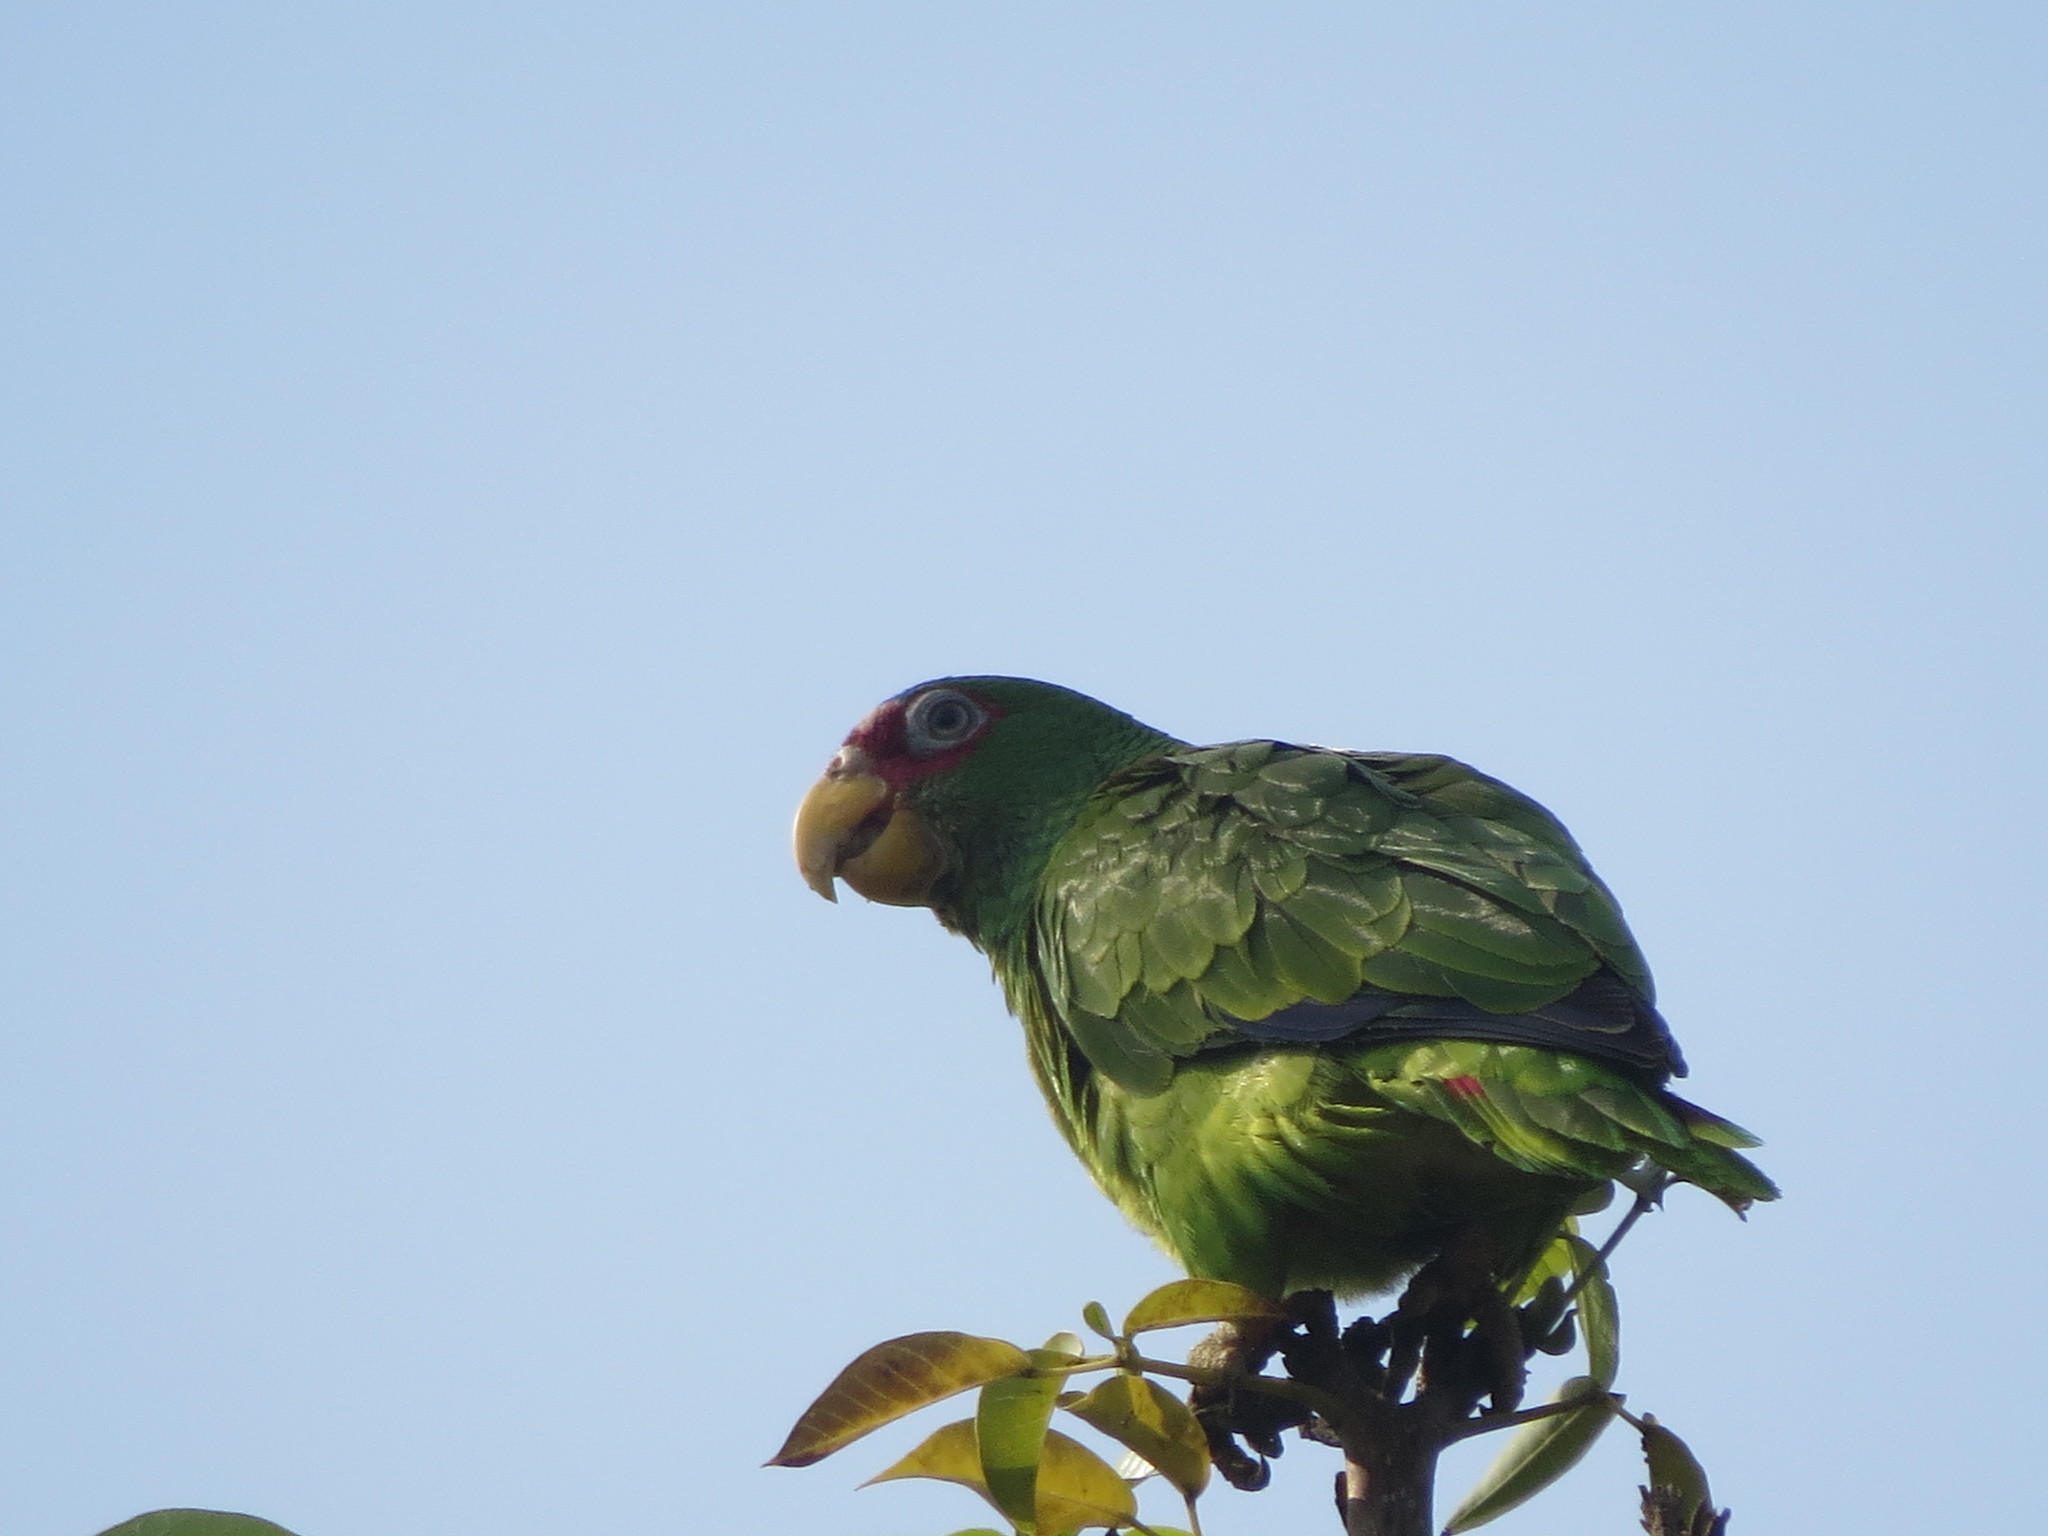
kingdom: Animalia
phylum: Chordata
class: Aves
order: Psittaciformes
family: Psittacidae
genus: Amazona
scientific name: Amazona albifrons
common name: White-fronted amazon
